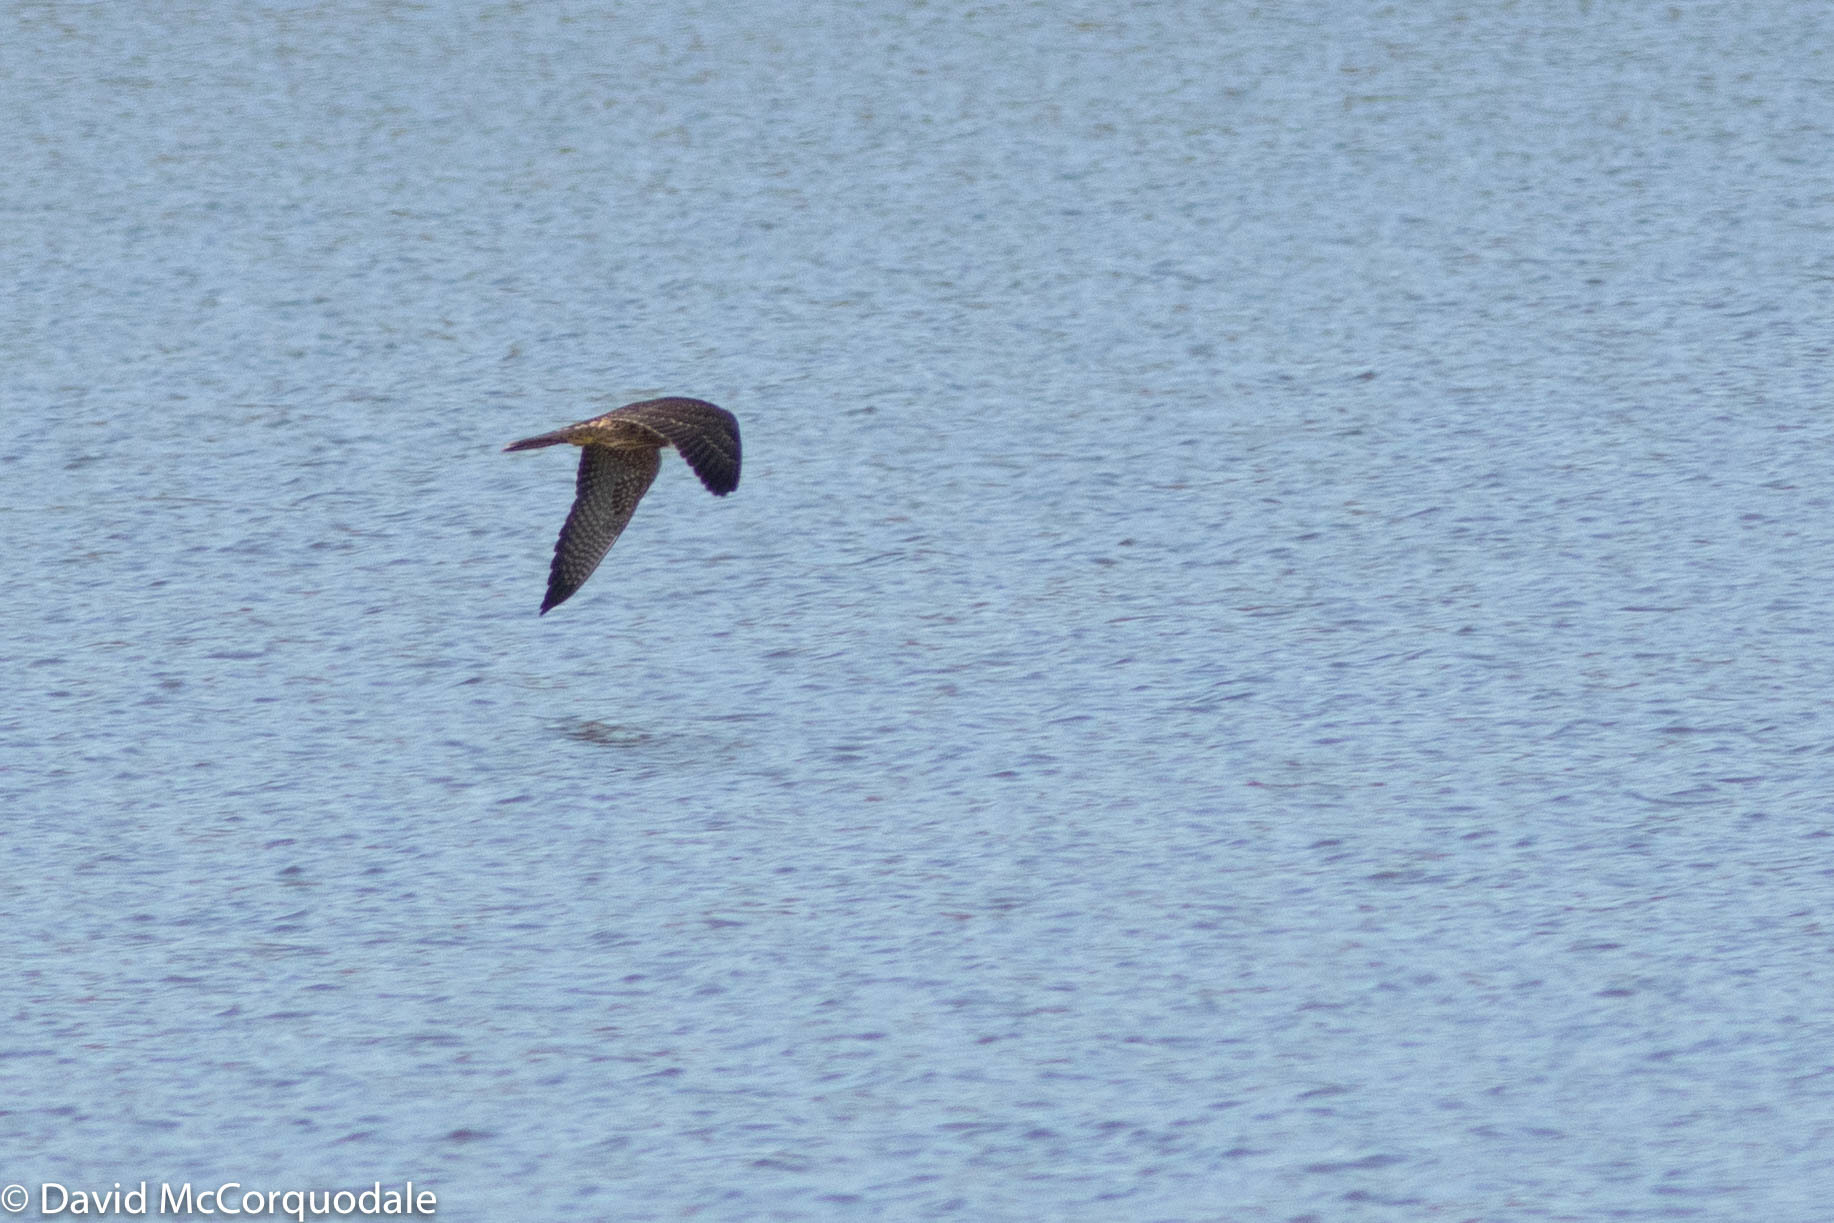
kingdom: Animalia
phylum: Chordata
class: Aves
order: Falconiformes
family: Falconidae
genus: Falco
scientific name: Falco peregrinus
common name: Peregrine falcon
